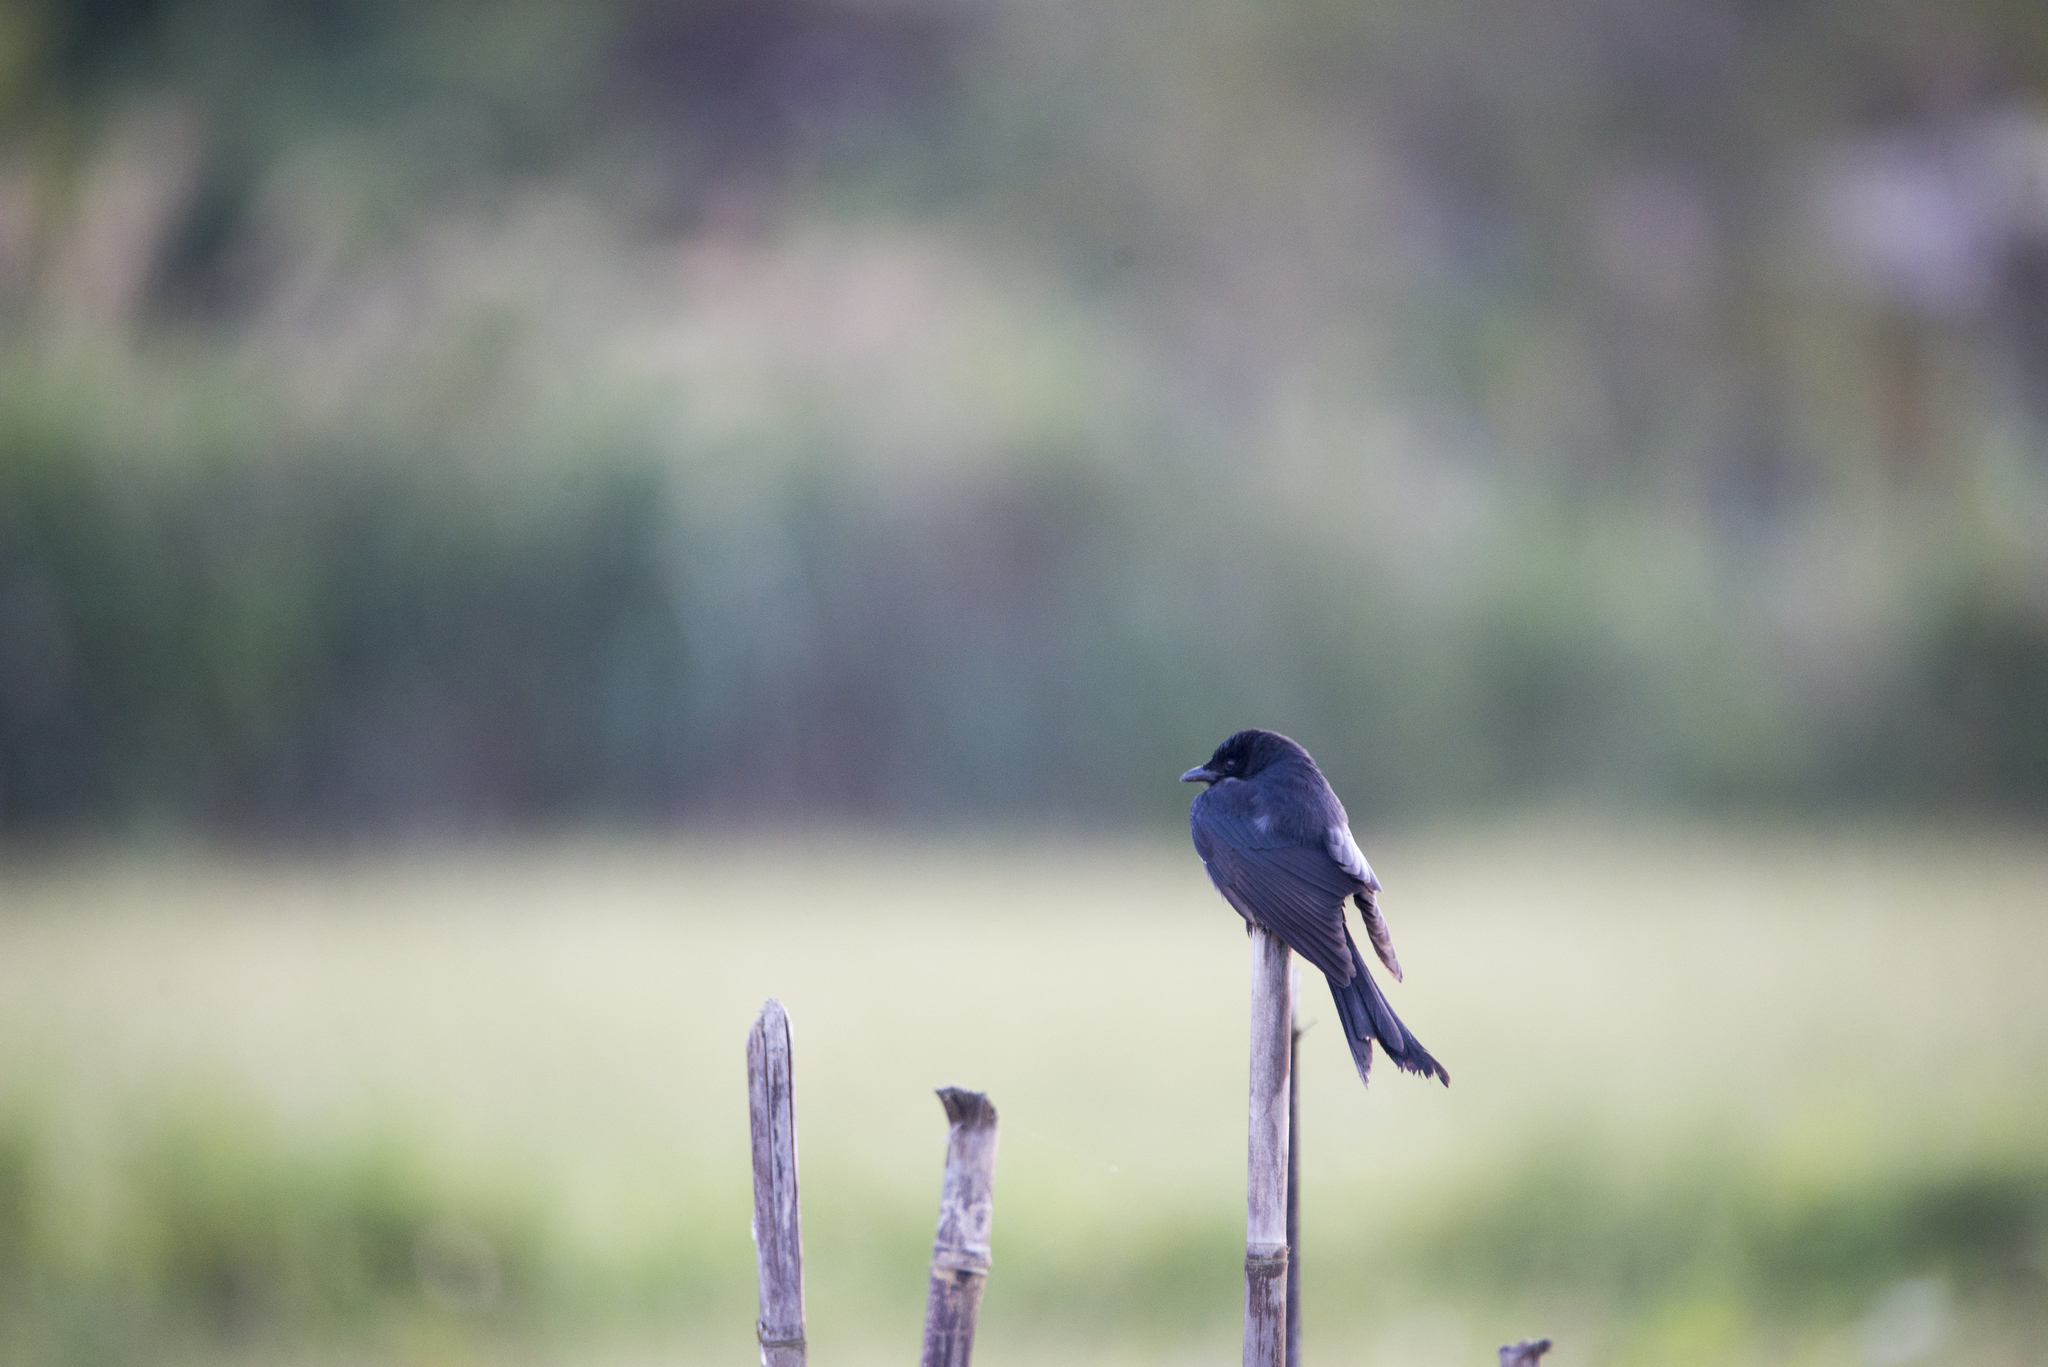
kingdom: Animalia
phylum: Chordata
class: Aves
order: Passeriformes
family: Dicruridae
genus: Dicrurus
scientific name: Dicrurus macrocercus
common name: Black drongo
